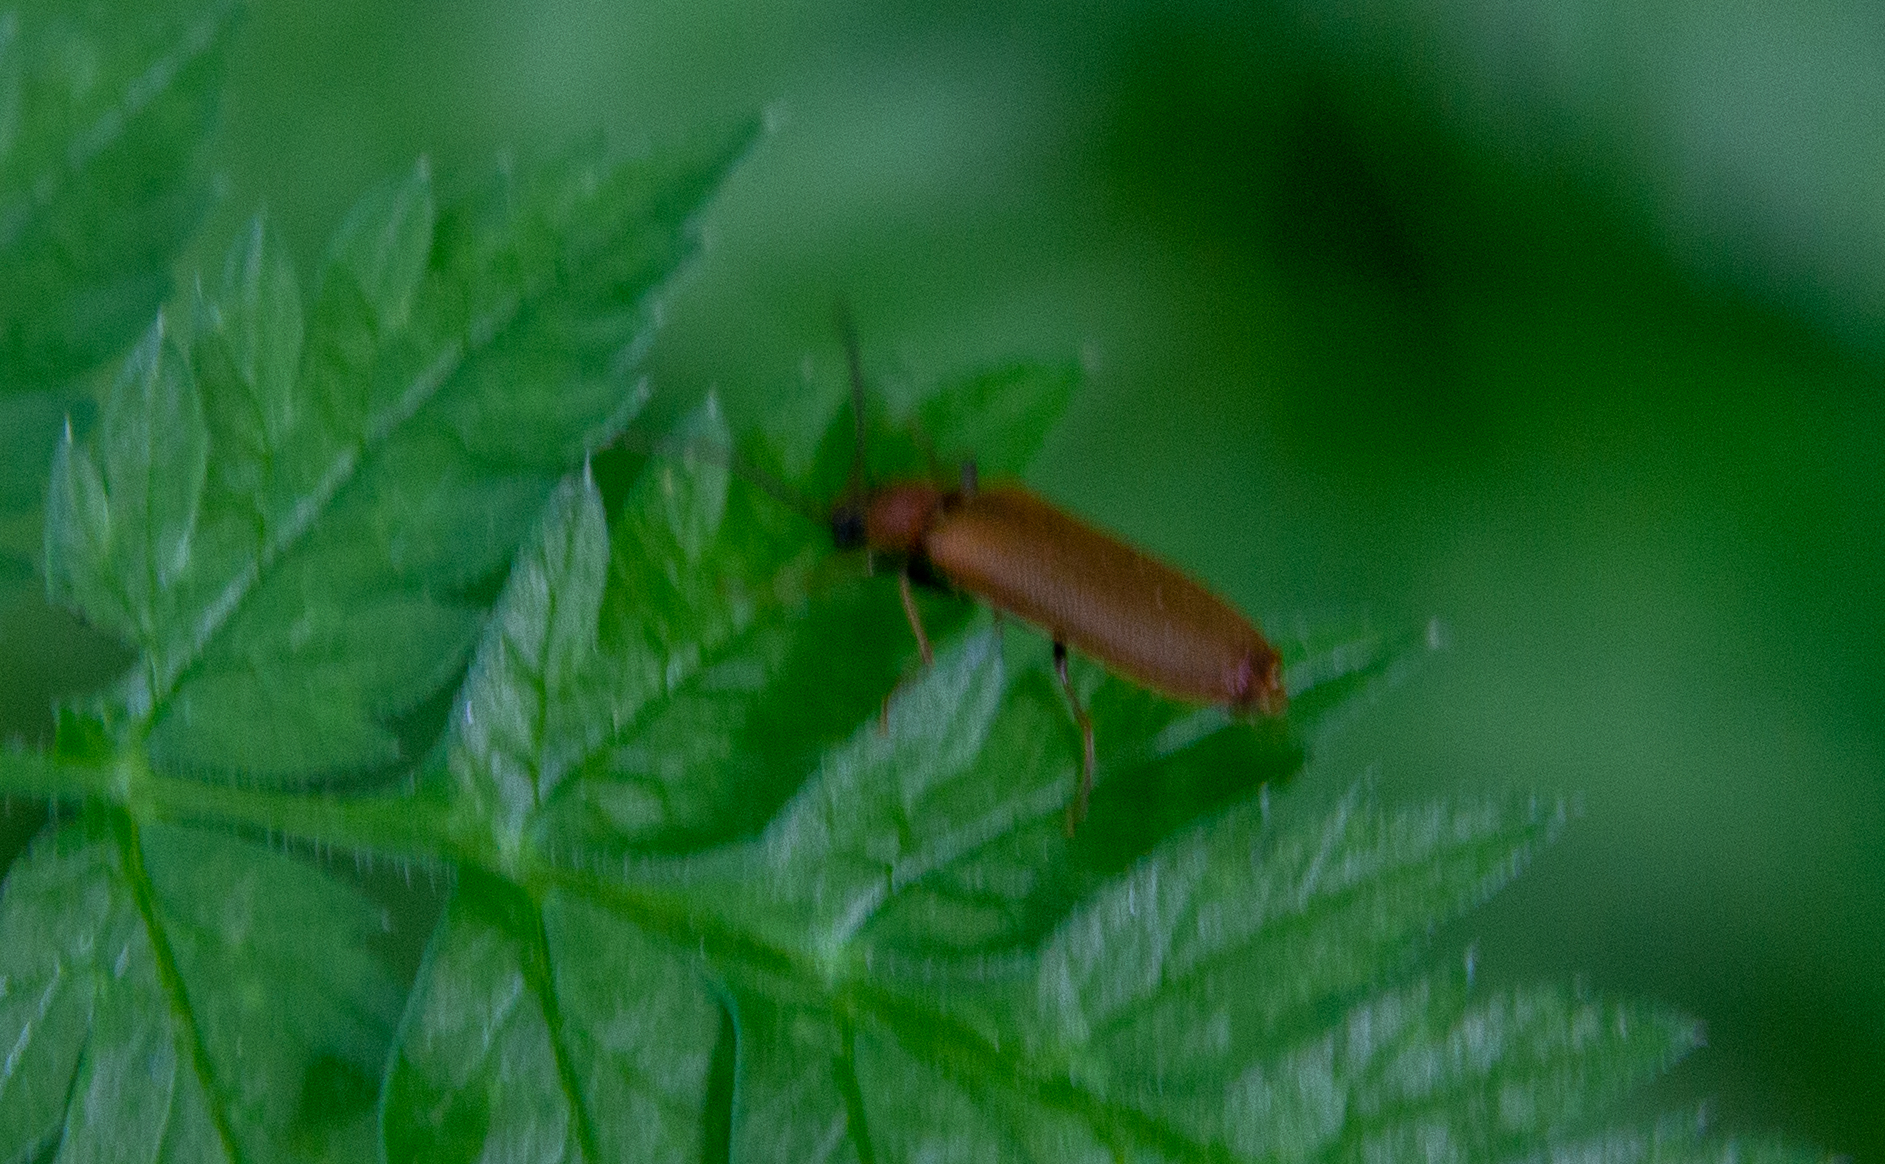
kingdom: Animalia
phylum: Arthropoda
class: Insecta
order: Coleoptera
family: Elateridae
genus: Denticollis
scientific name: Denticollis linearis
